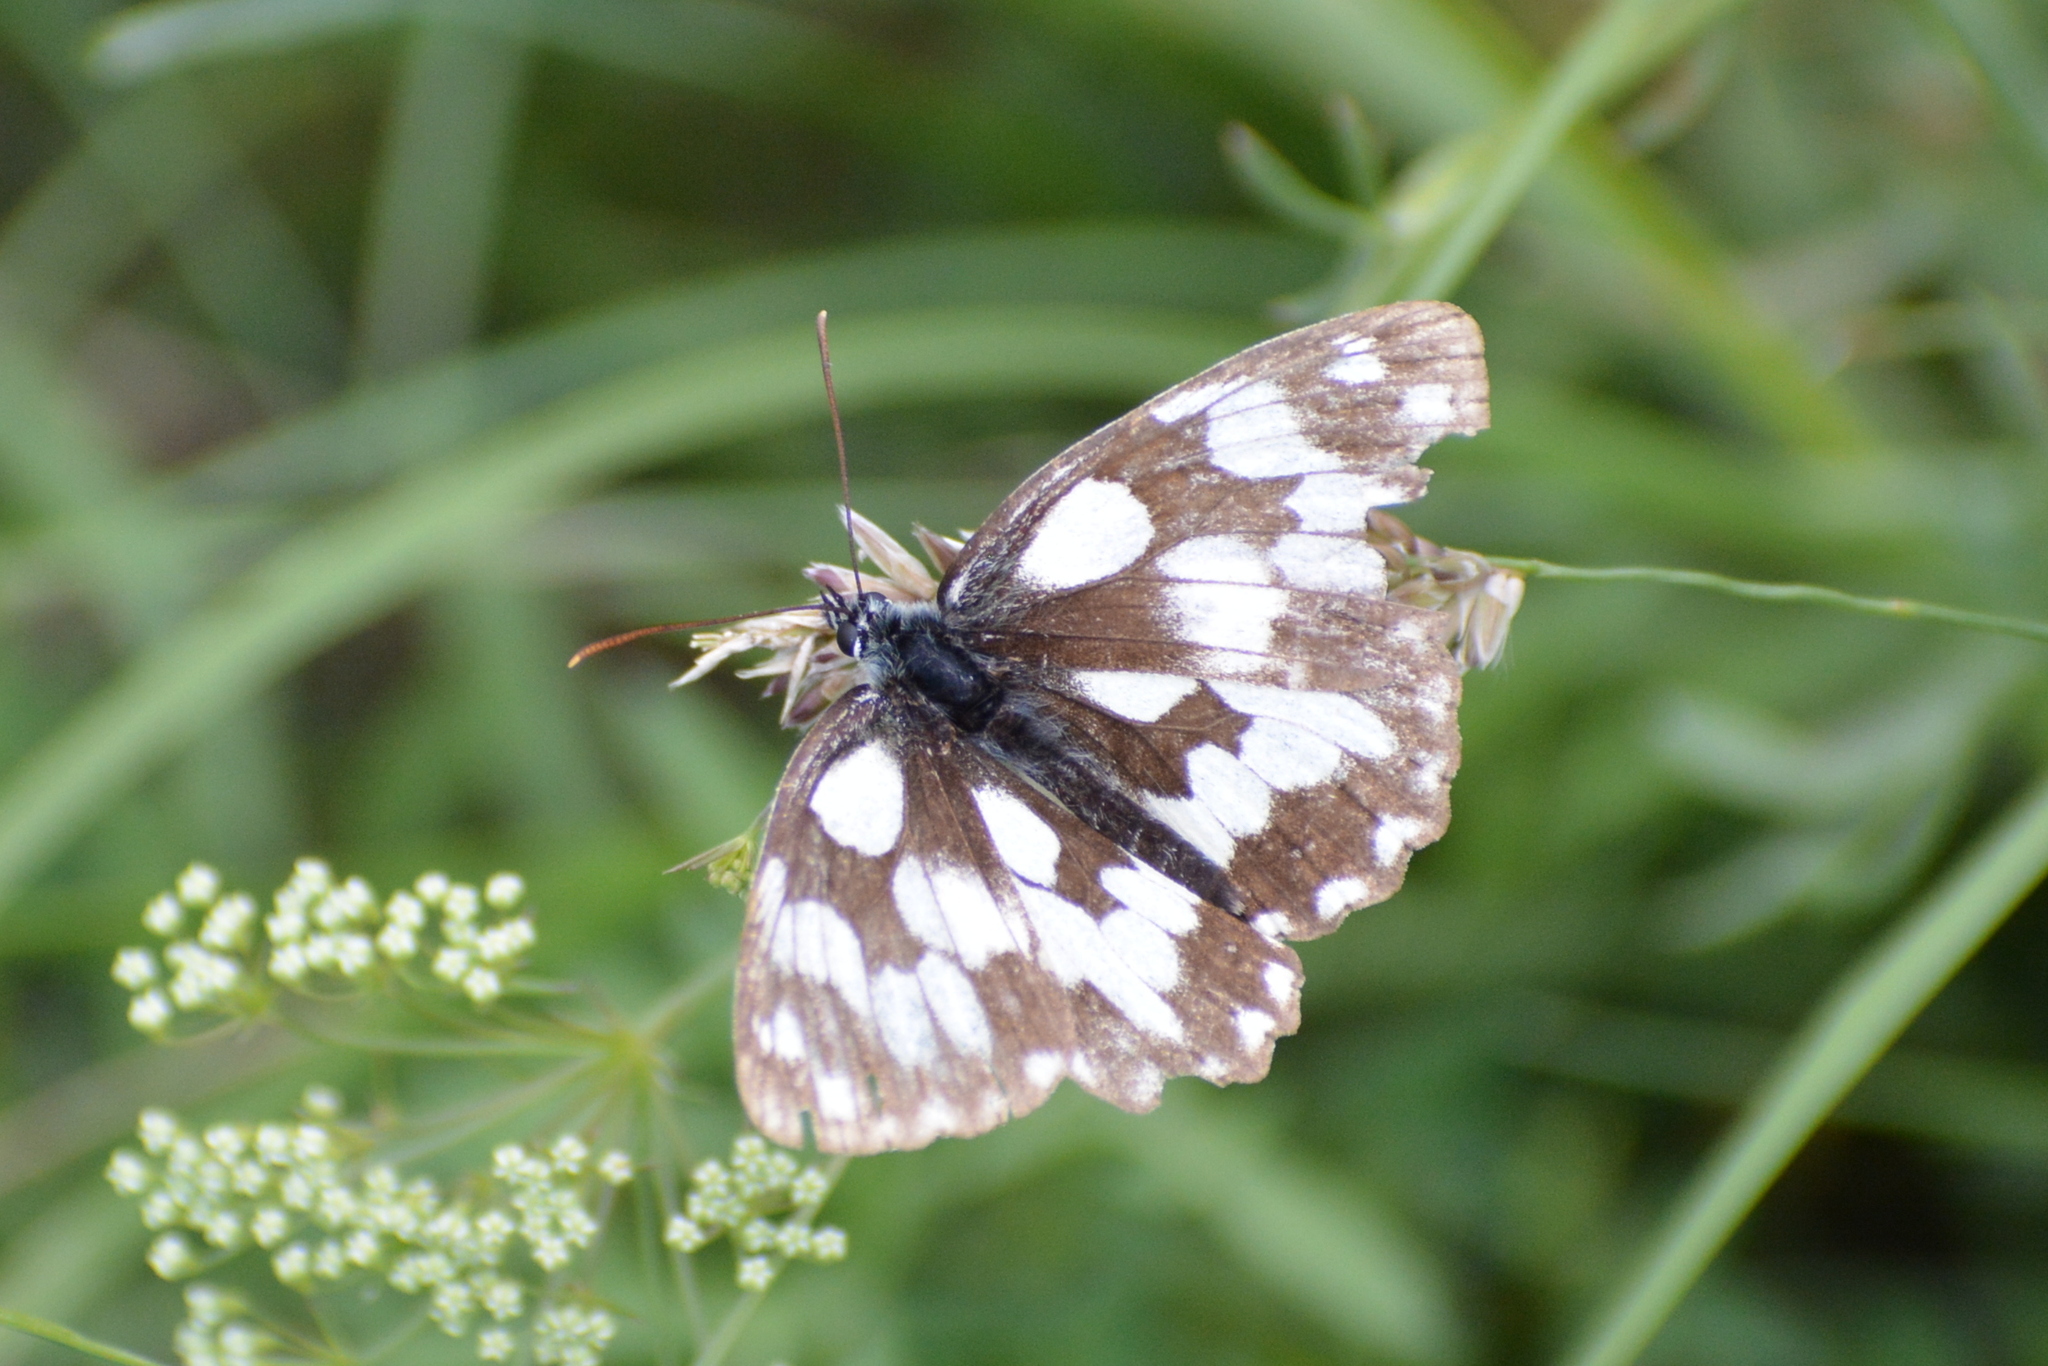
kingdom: Animalia
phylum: Arthropoda
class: Insecta
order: Lepidoptera
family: Nymphalidae
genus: Melanargia
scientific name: Melanargia galathea
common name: Marbled white
